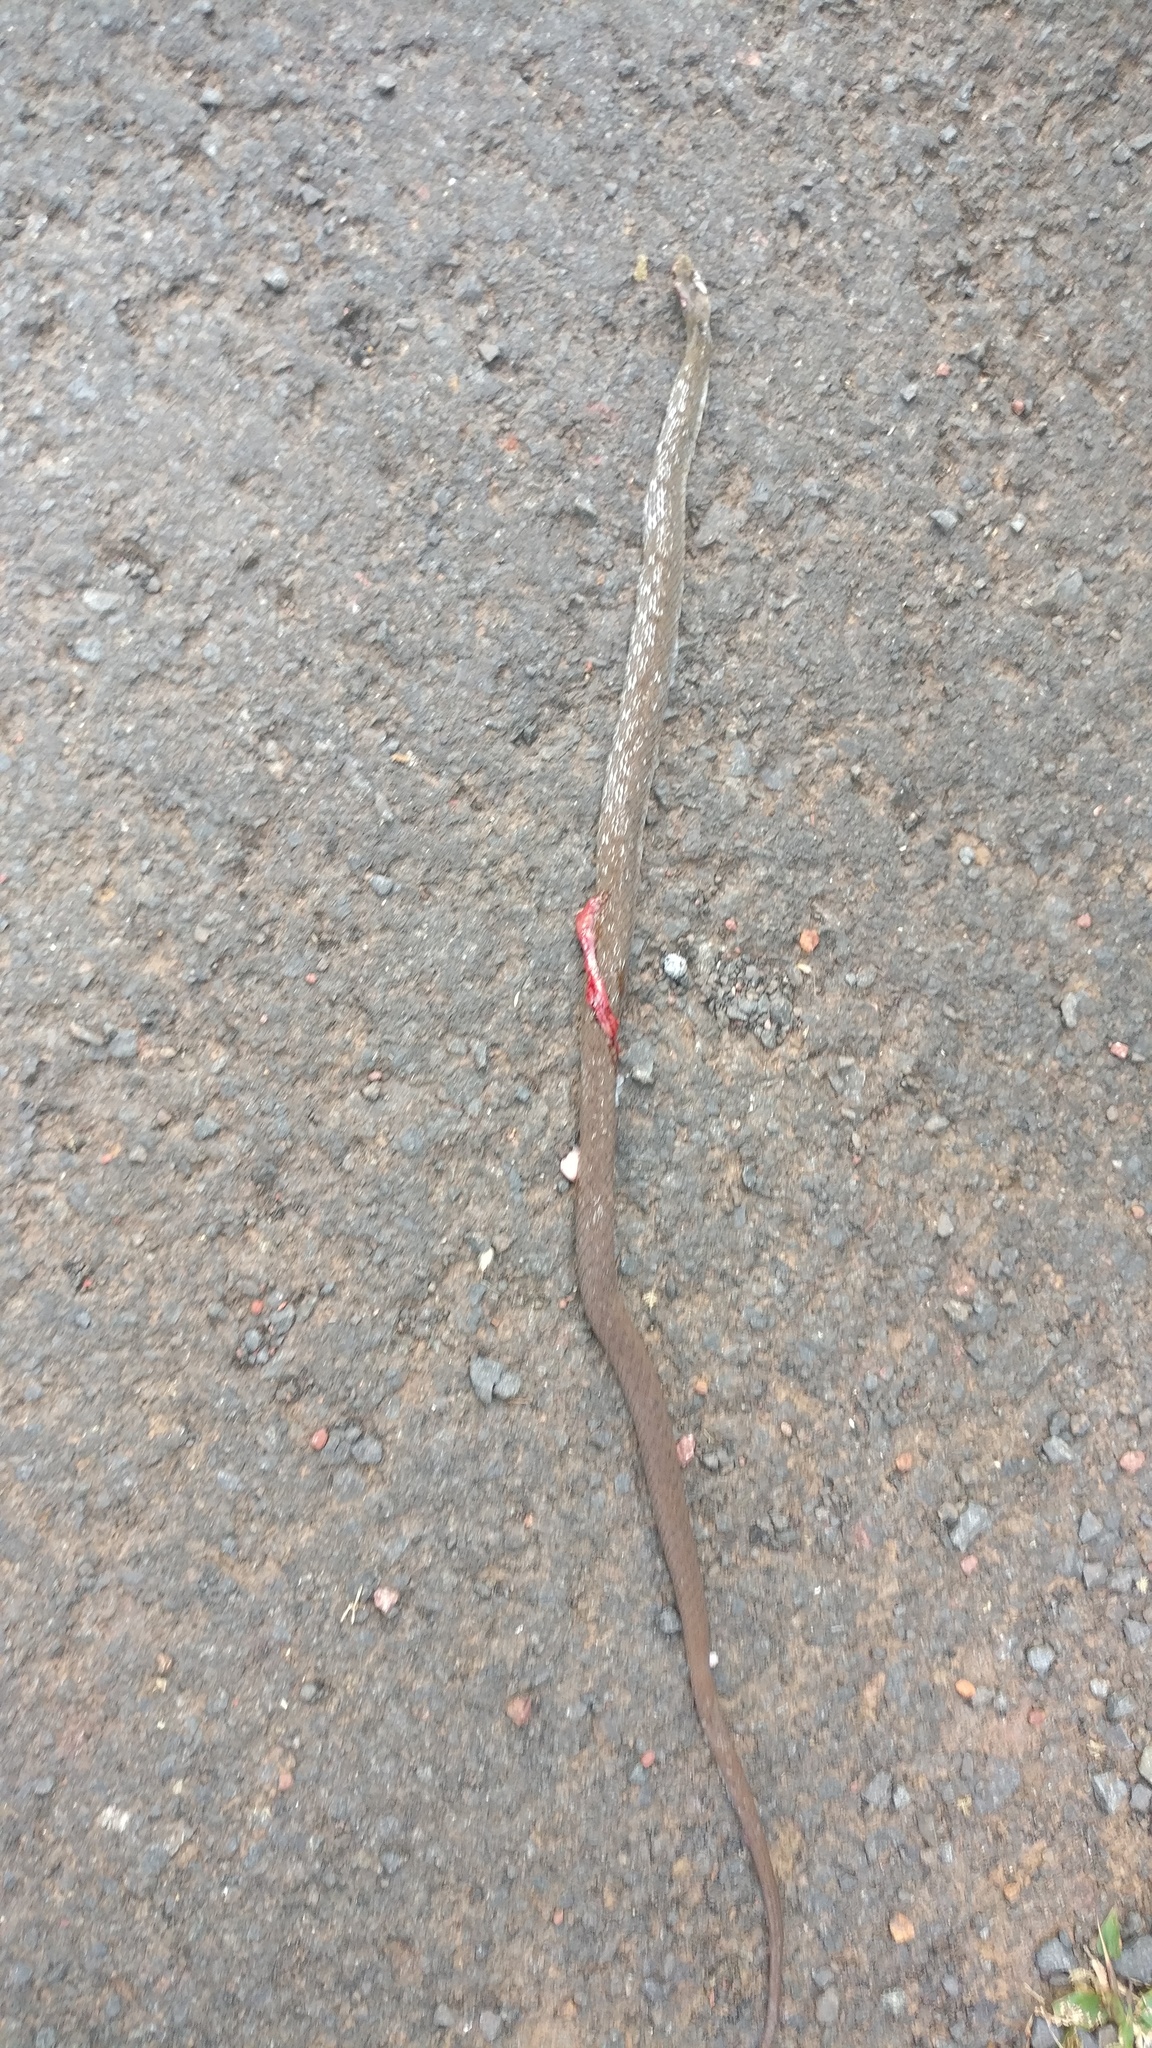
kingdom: Animalia
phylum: Chordata
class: Squamata
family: Colubridae
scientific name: Colubridae
